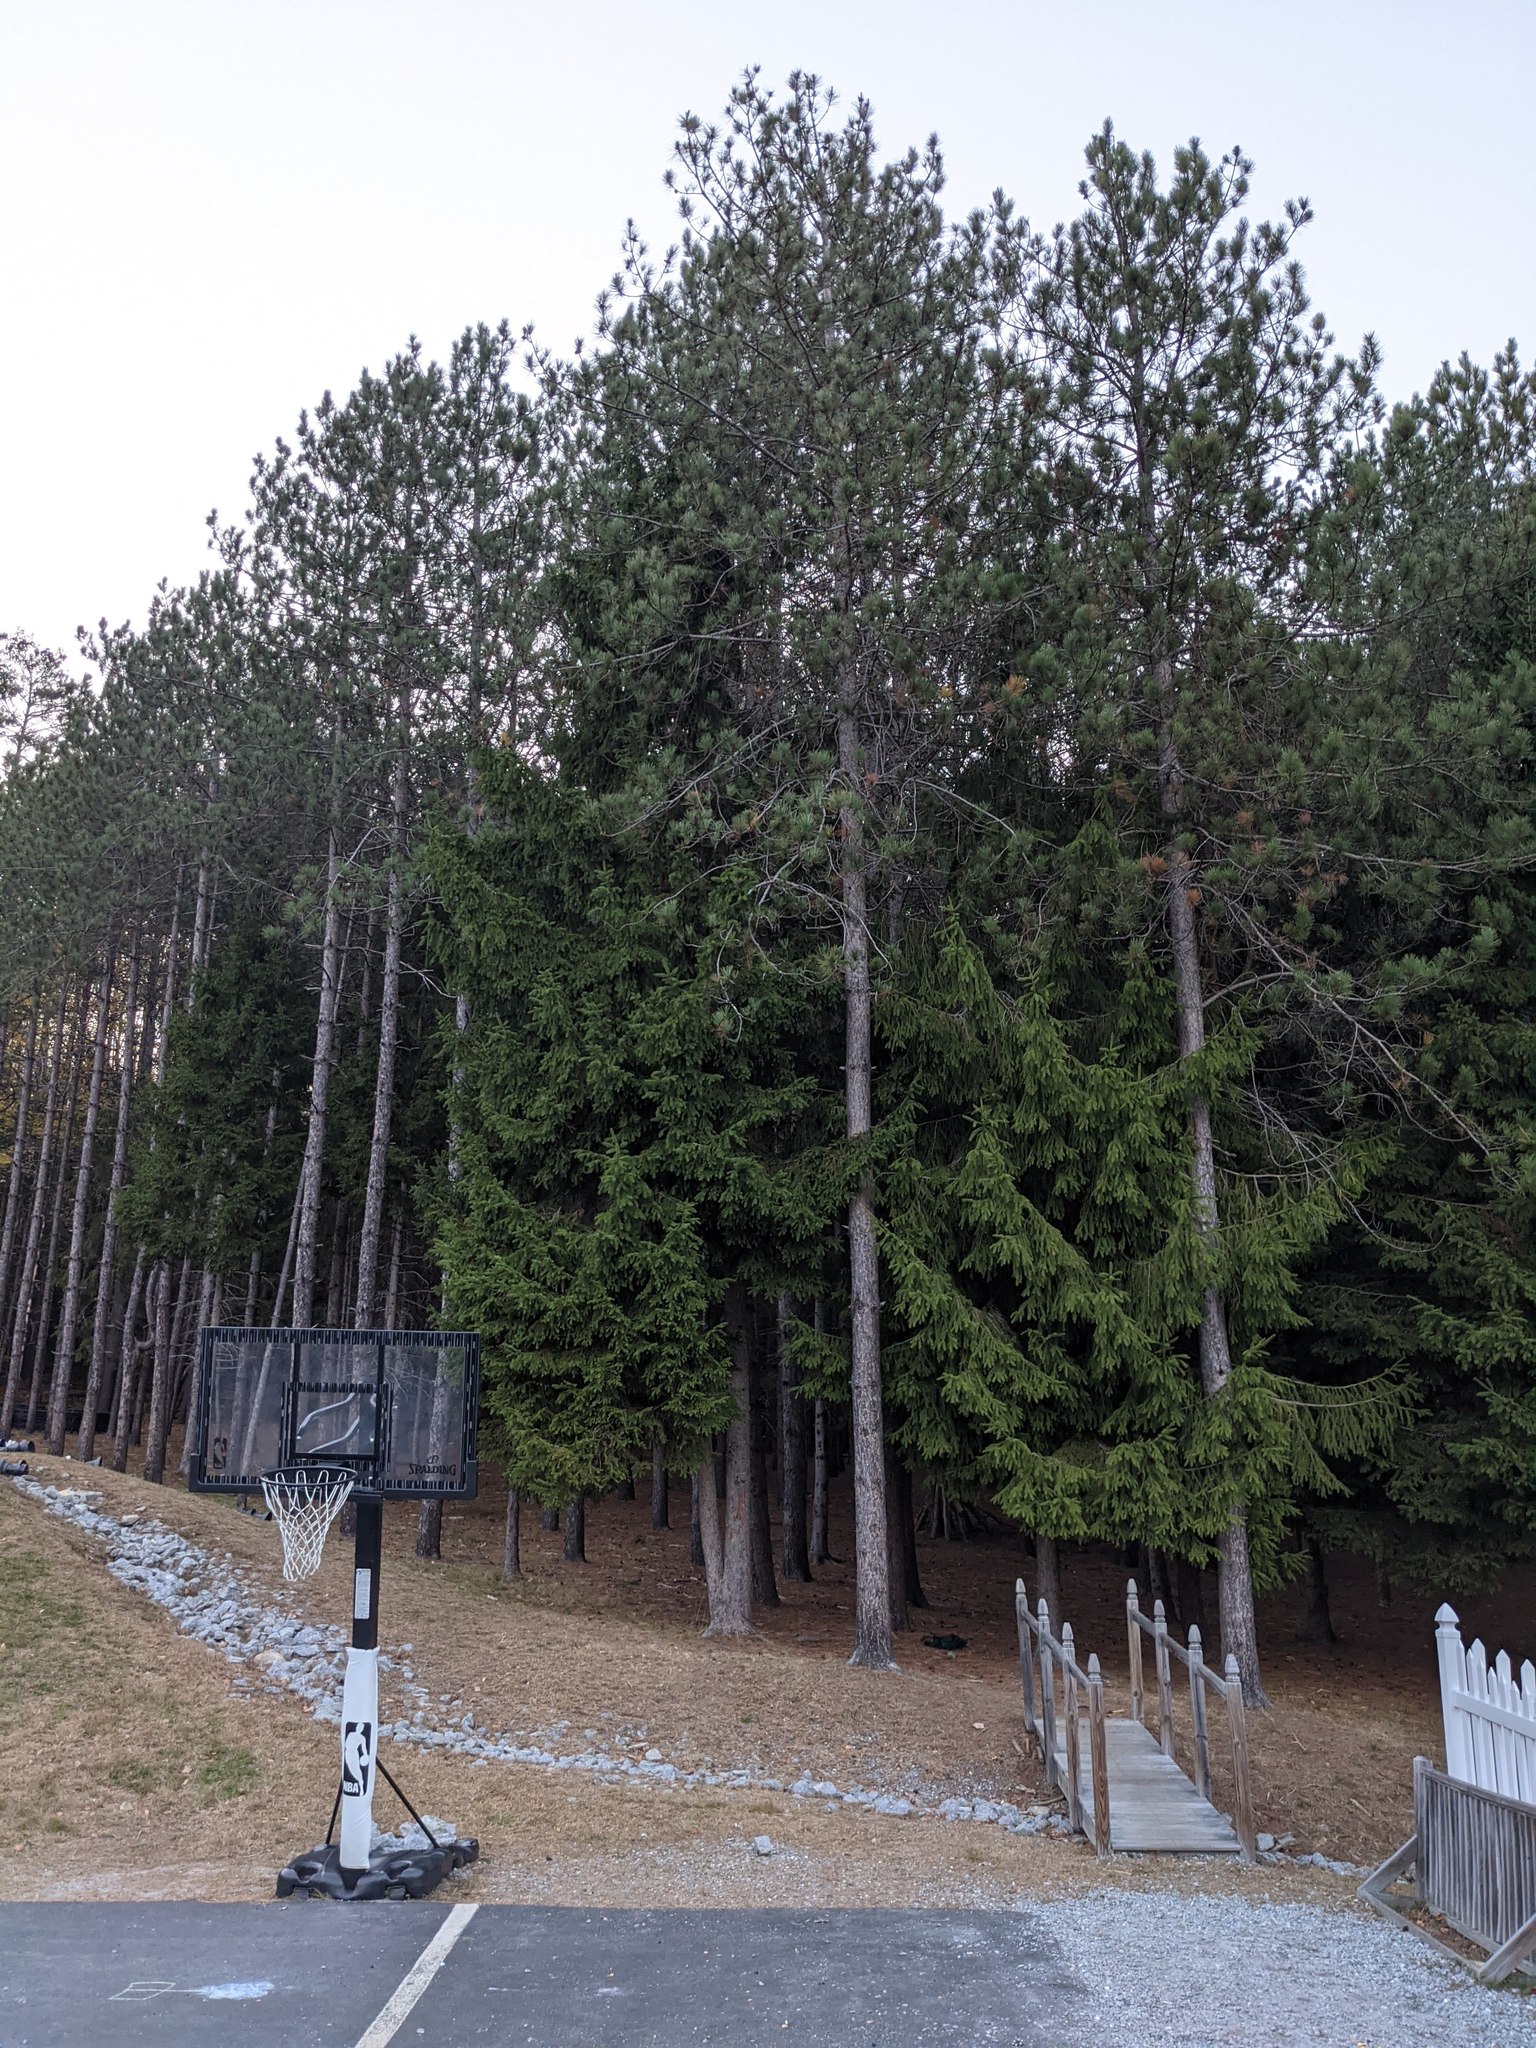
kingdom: Plantae
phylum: Tracheophyta
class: Pinopsida
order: Pinales
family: Pinaceae
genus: Pinus
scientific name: Pinus resinosa
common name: Norway pine
